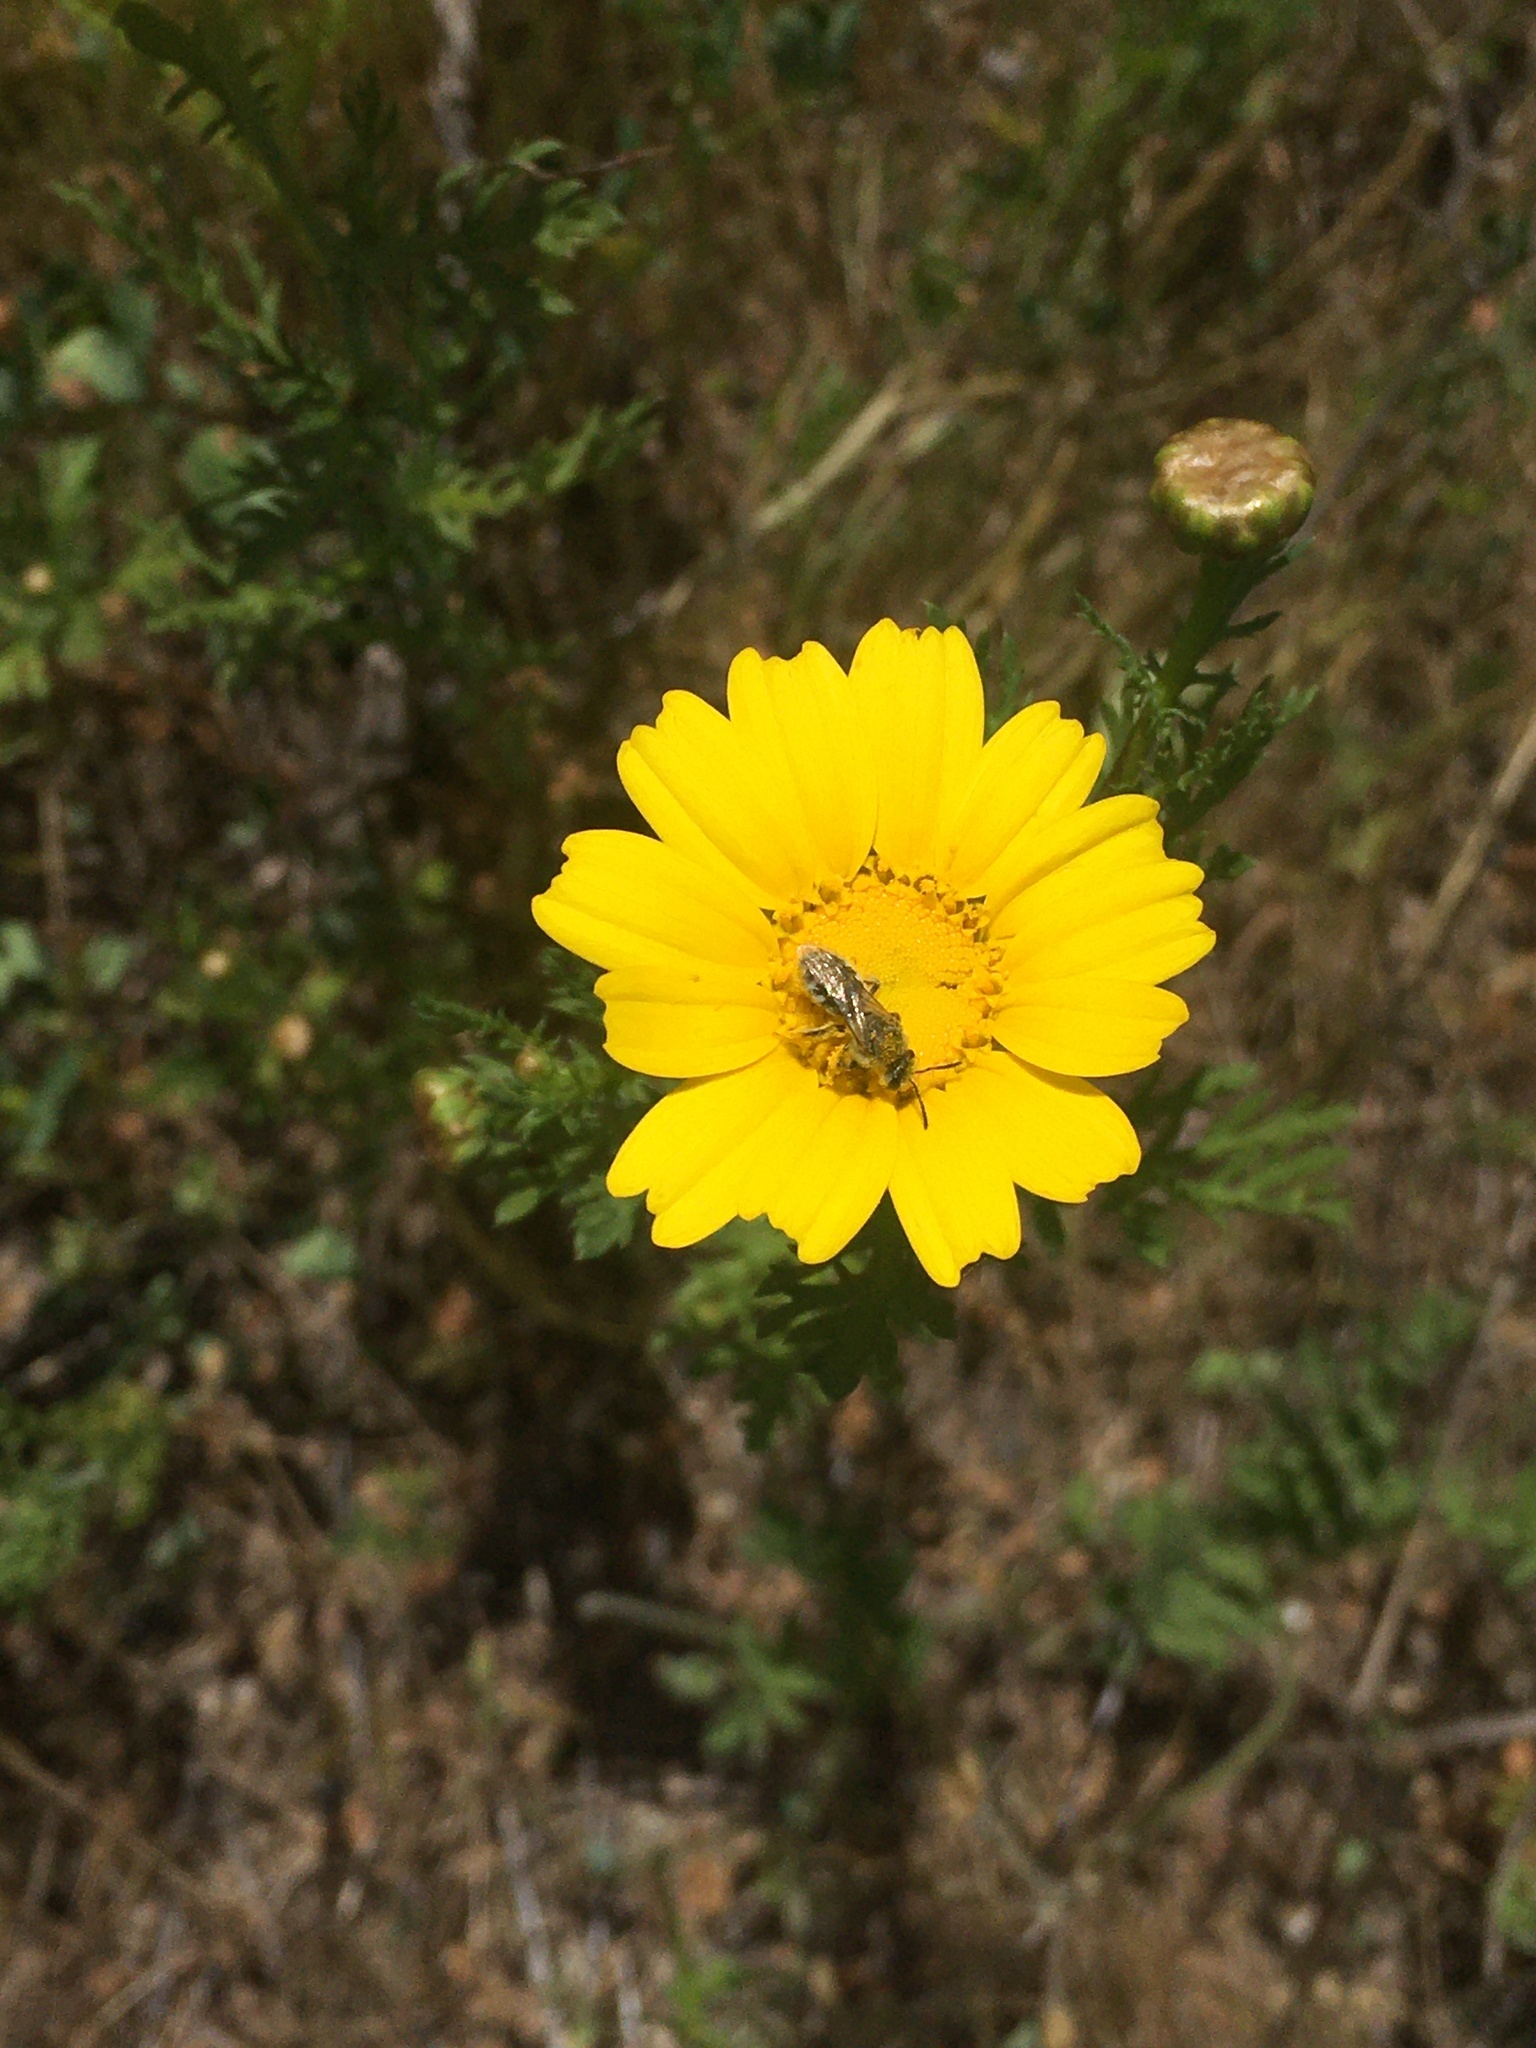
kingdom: Animalia
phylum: Arthropoda
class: Insecta
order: Hymenoptera
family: Halictidae
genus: Lasioglossum
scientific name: Lasioglossum sisymbrii
